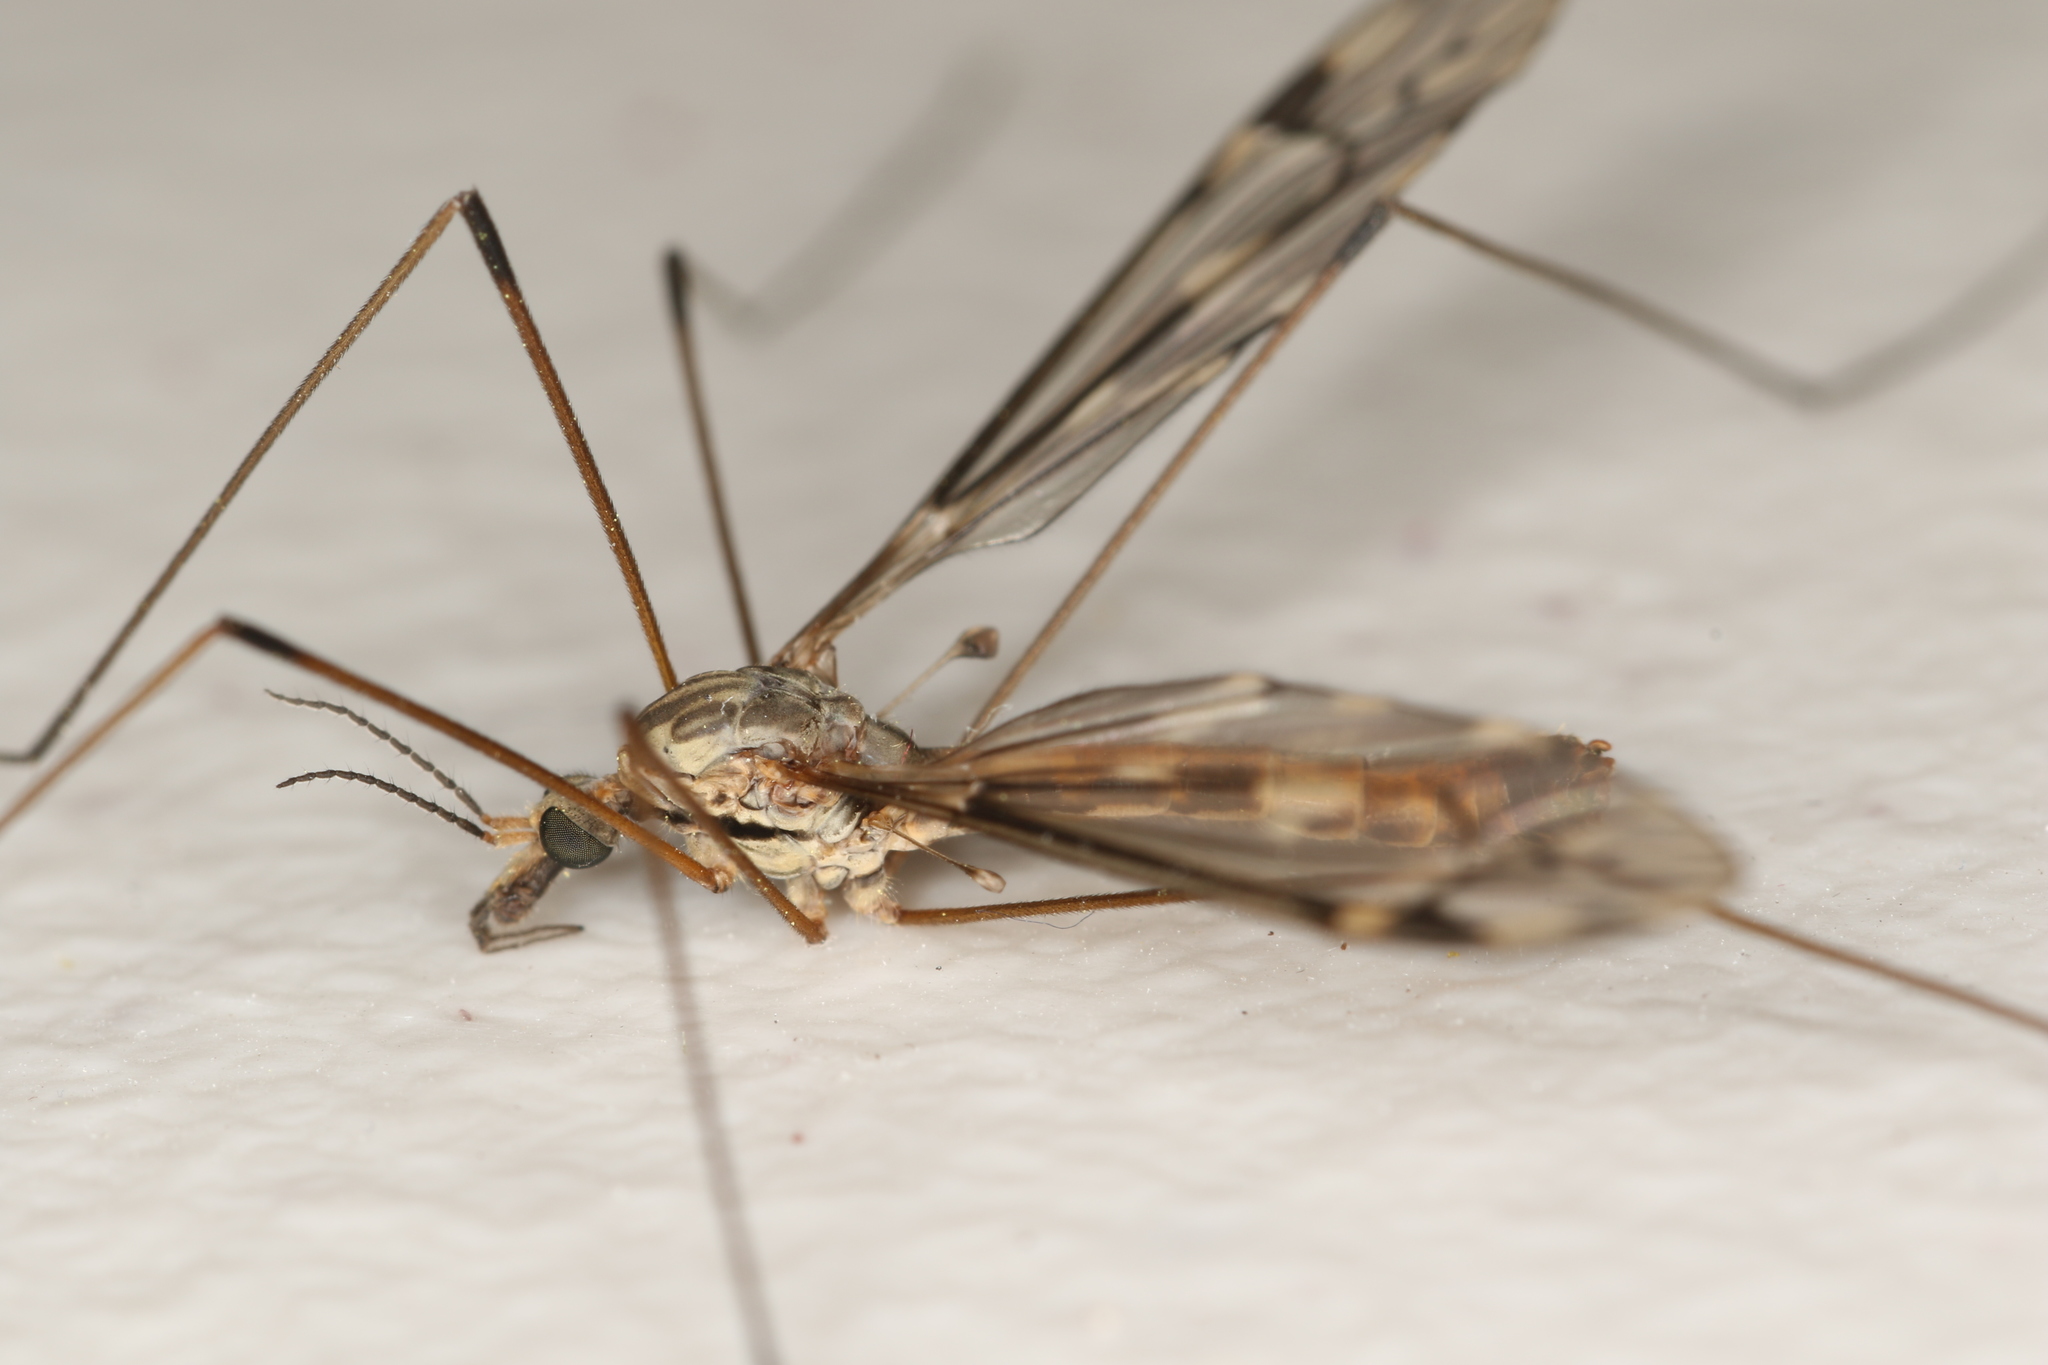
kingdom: Animalia
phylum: Arthropoda
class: Insecta
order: Diptera
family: Tipulidae
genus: Tipula
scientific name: Tipula rufina
